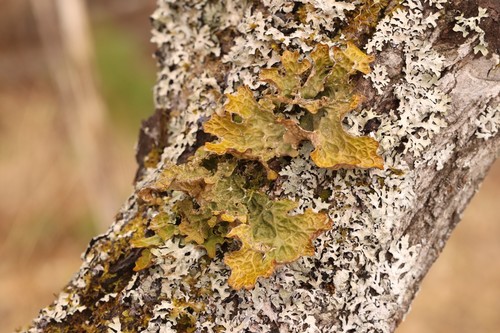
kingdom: Fungi
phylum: Ascomycota
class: Lecanoromycetes
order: Peltigerales
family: Lobariaceae
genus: Lobaria
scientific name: Lobaria pulmonaria
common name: Lungwort
